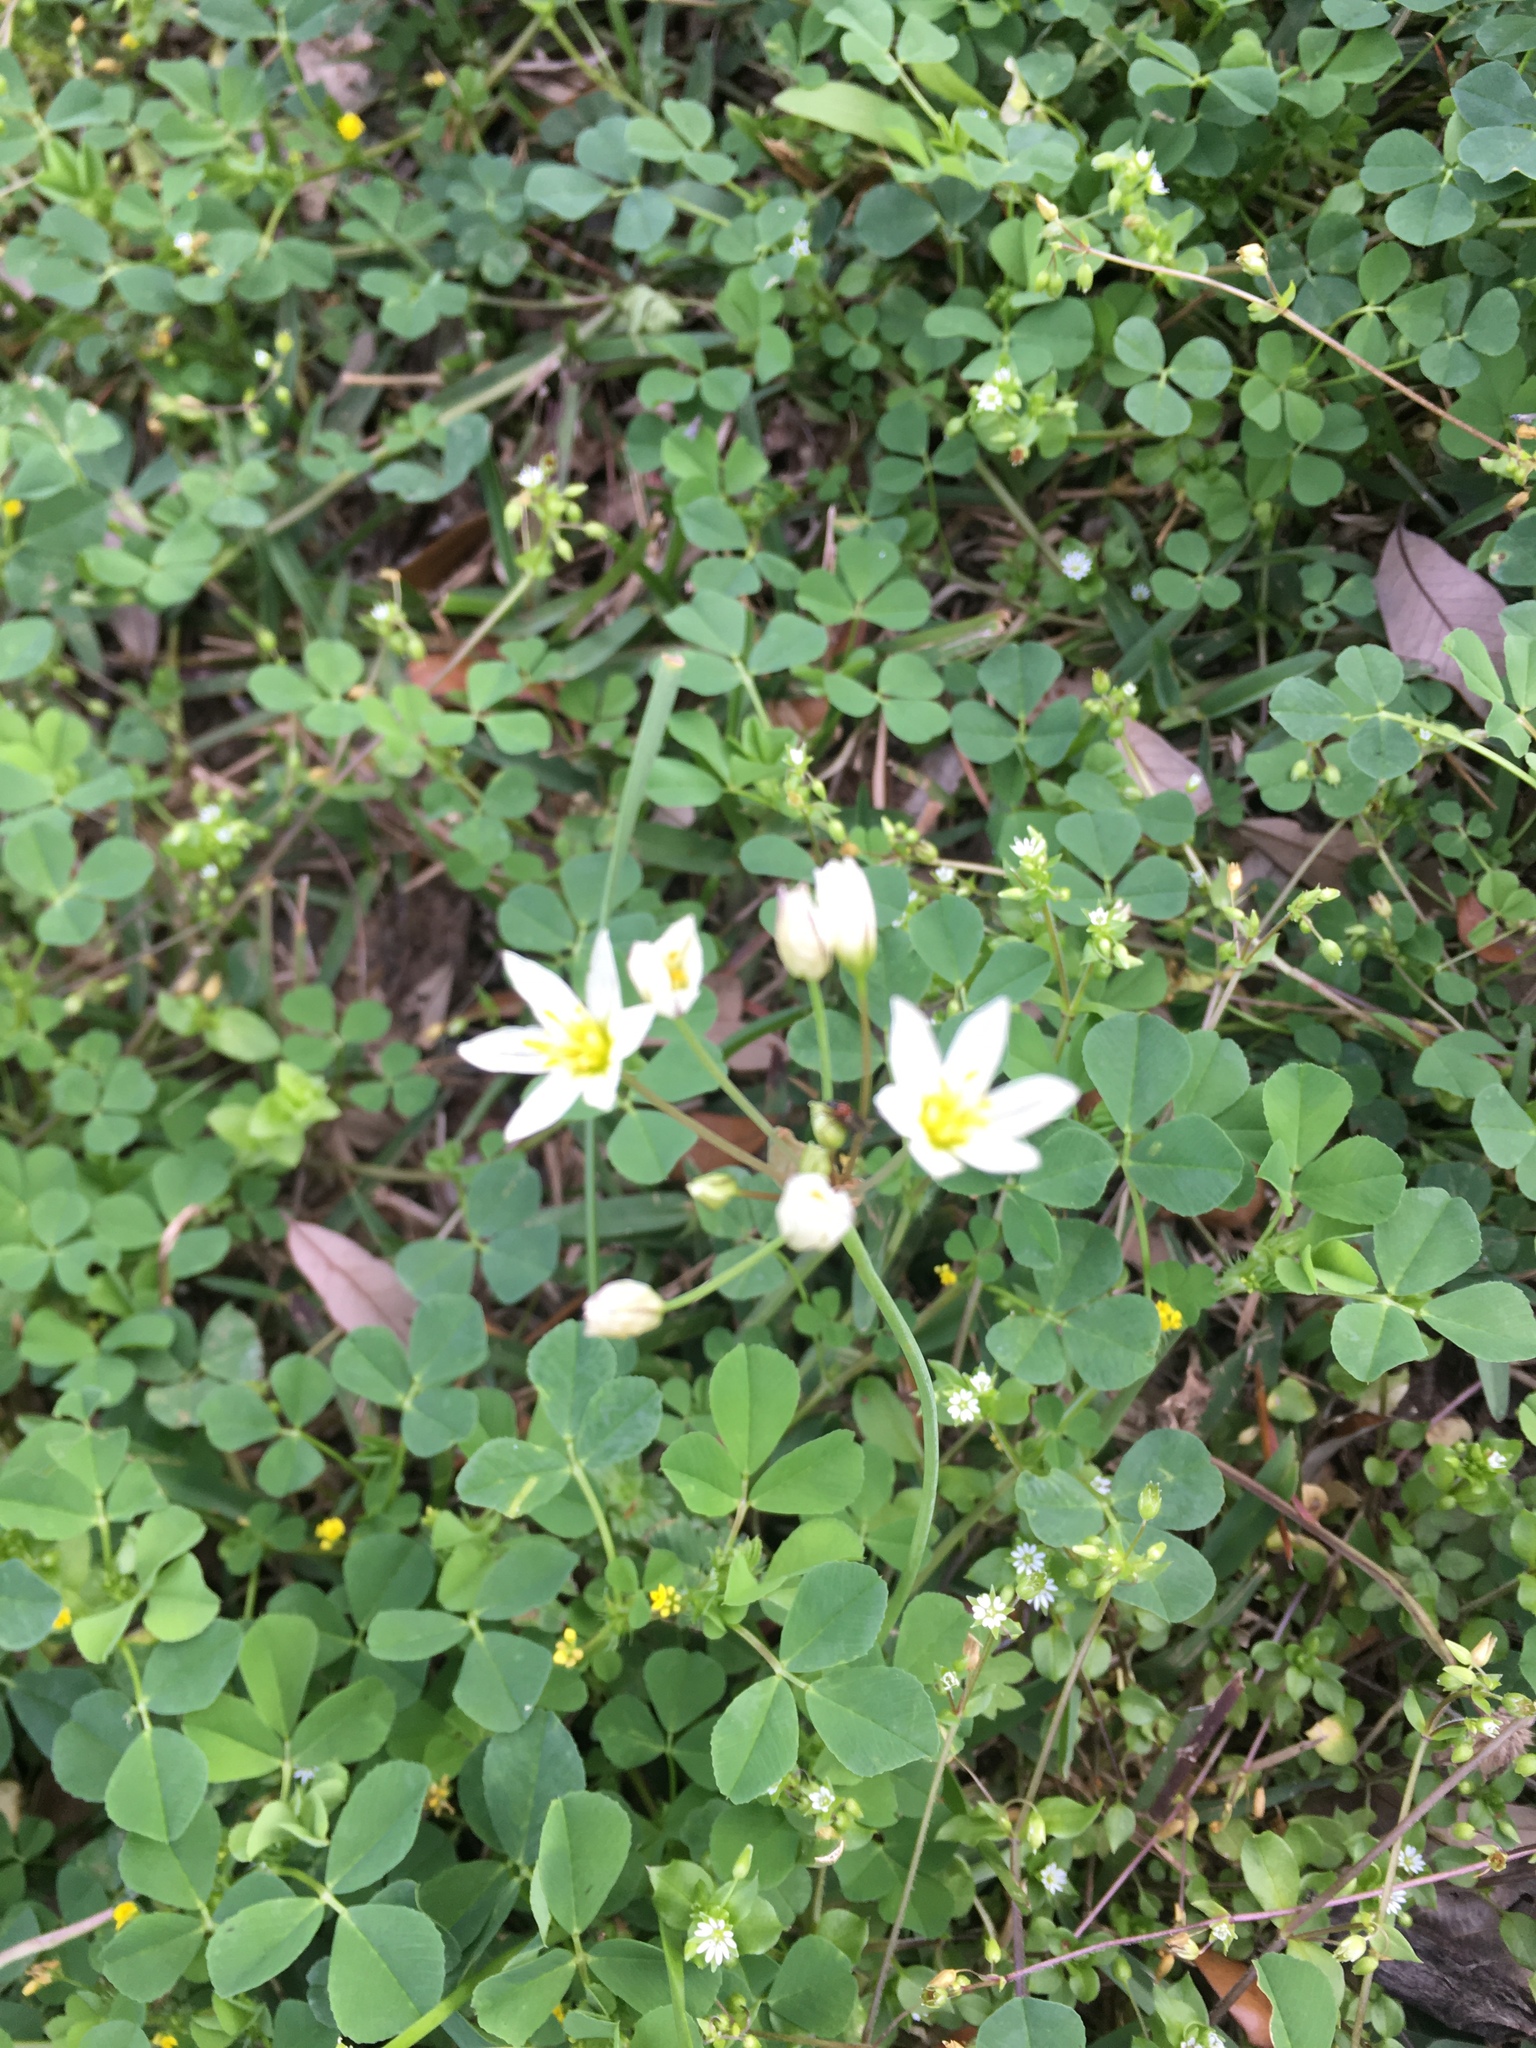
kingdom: Plantae
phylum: Tracheophyta
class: Liliopsida
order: Asparagales
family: Amaryllidaceae
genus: Nothoscordum
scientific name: Nothoscordum bivalve
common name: Crow-poison
